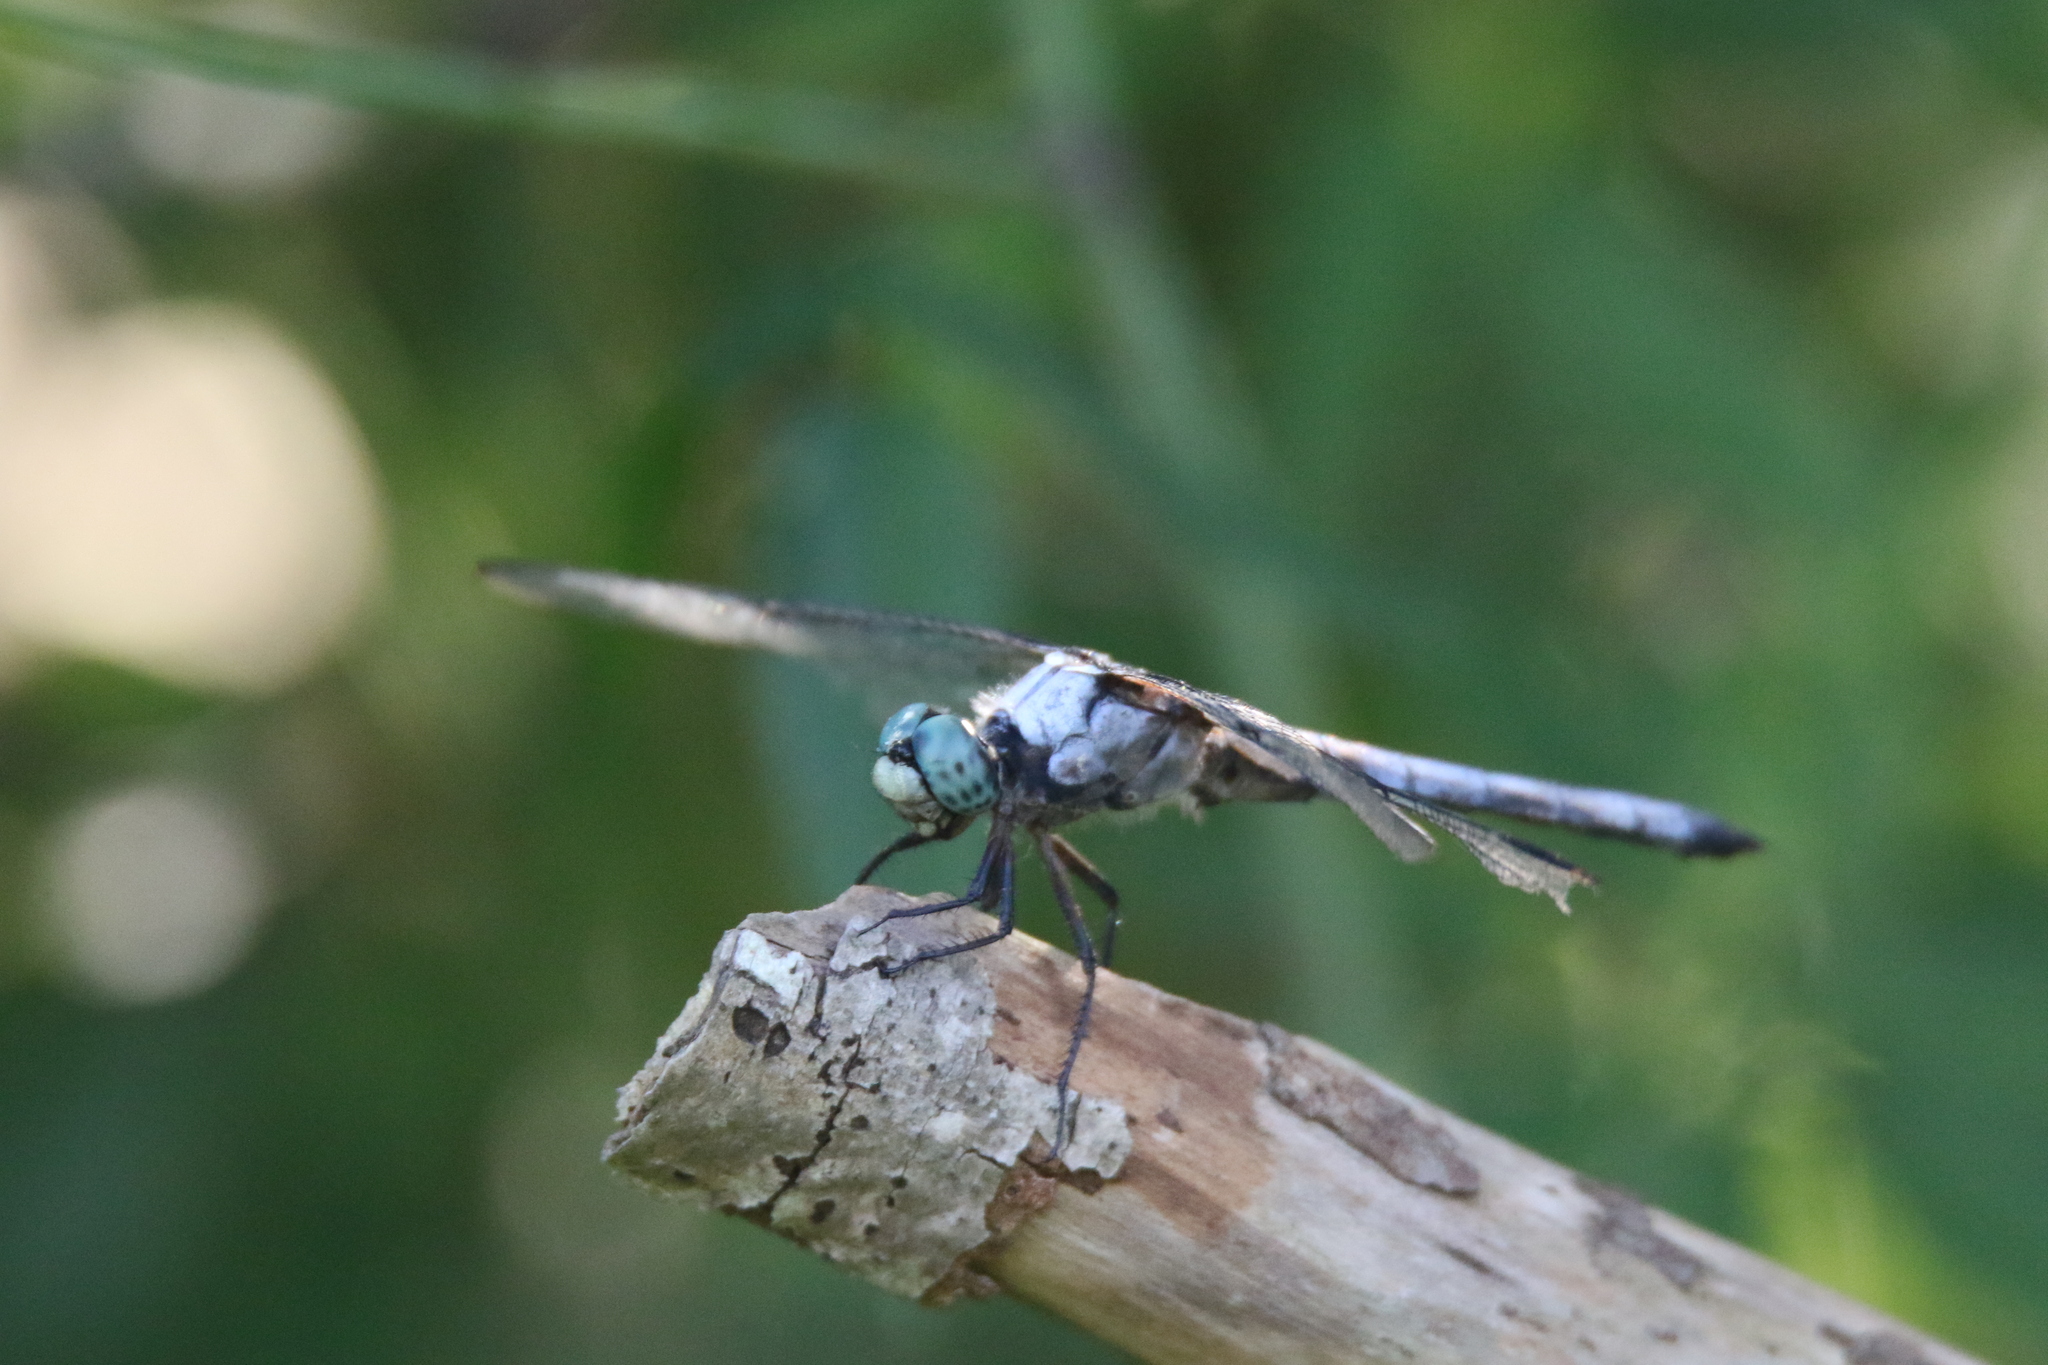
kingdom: Animalia
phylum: Arthropoda
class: Insecta
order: Odonata
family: Libellulidae
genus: Libellula
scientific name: Libellula vibrans
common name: Great blue skimmer
